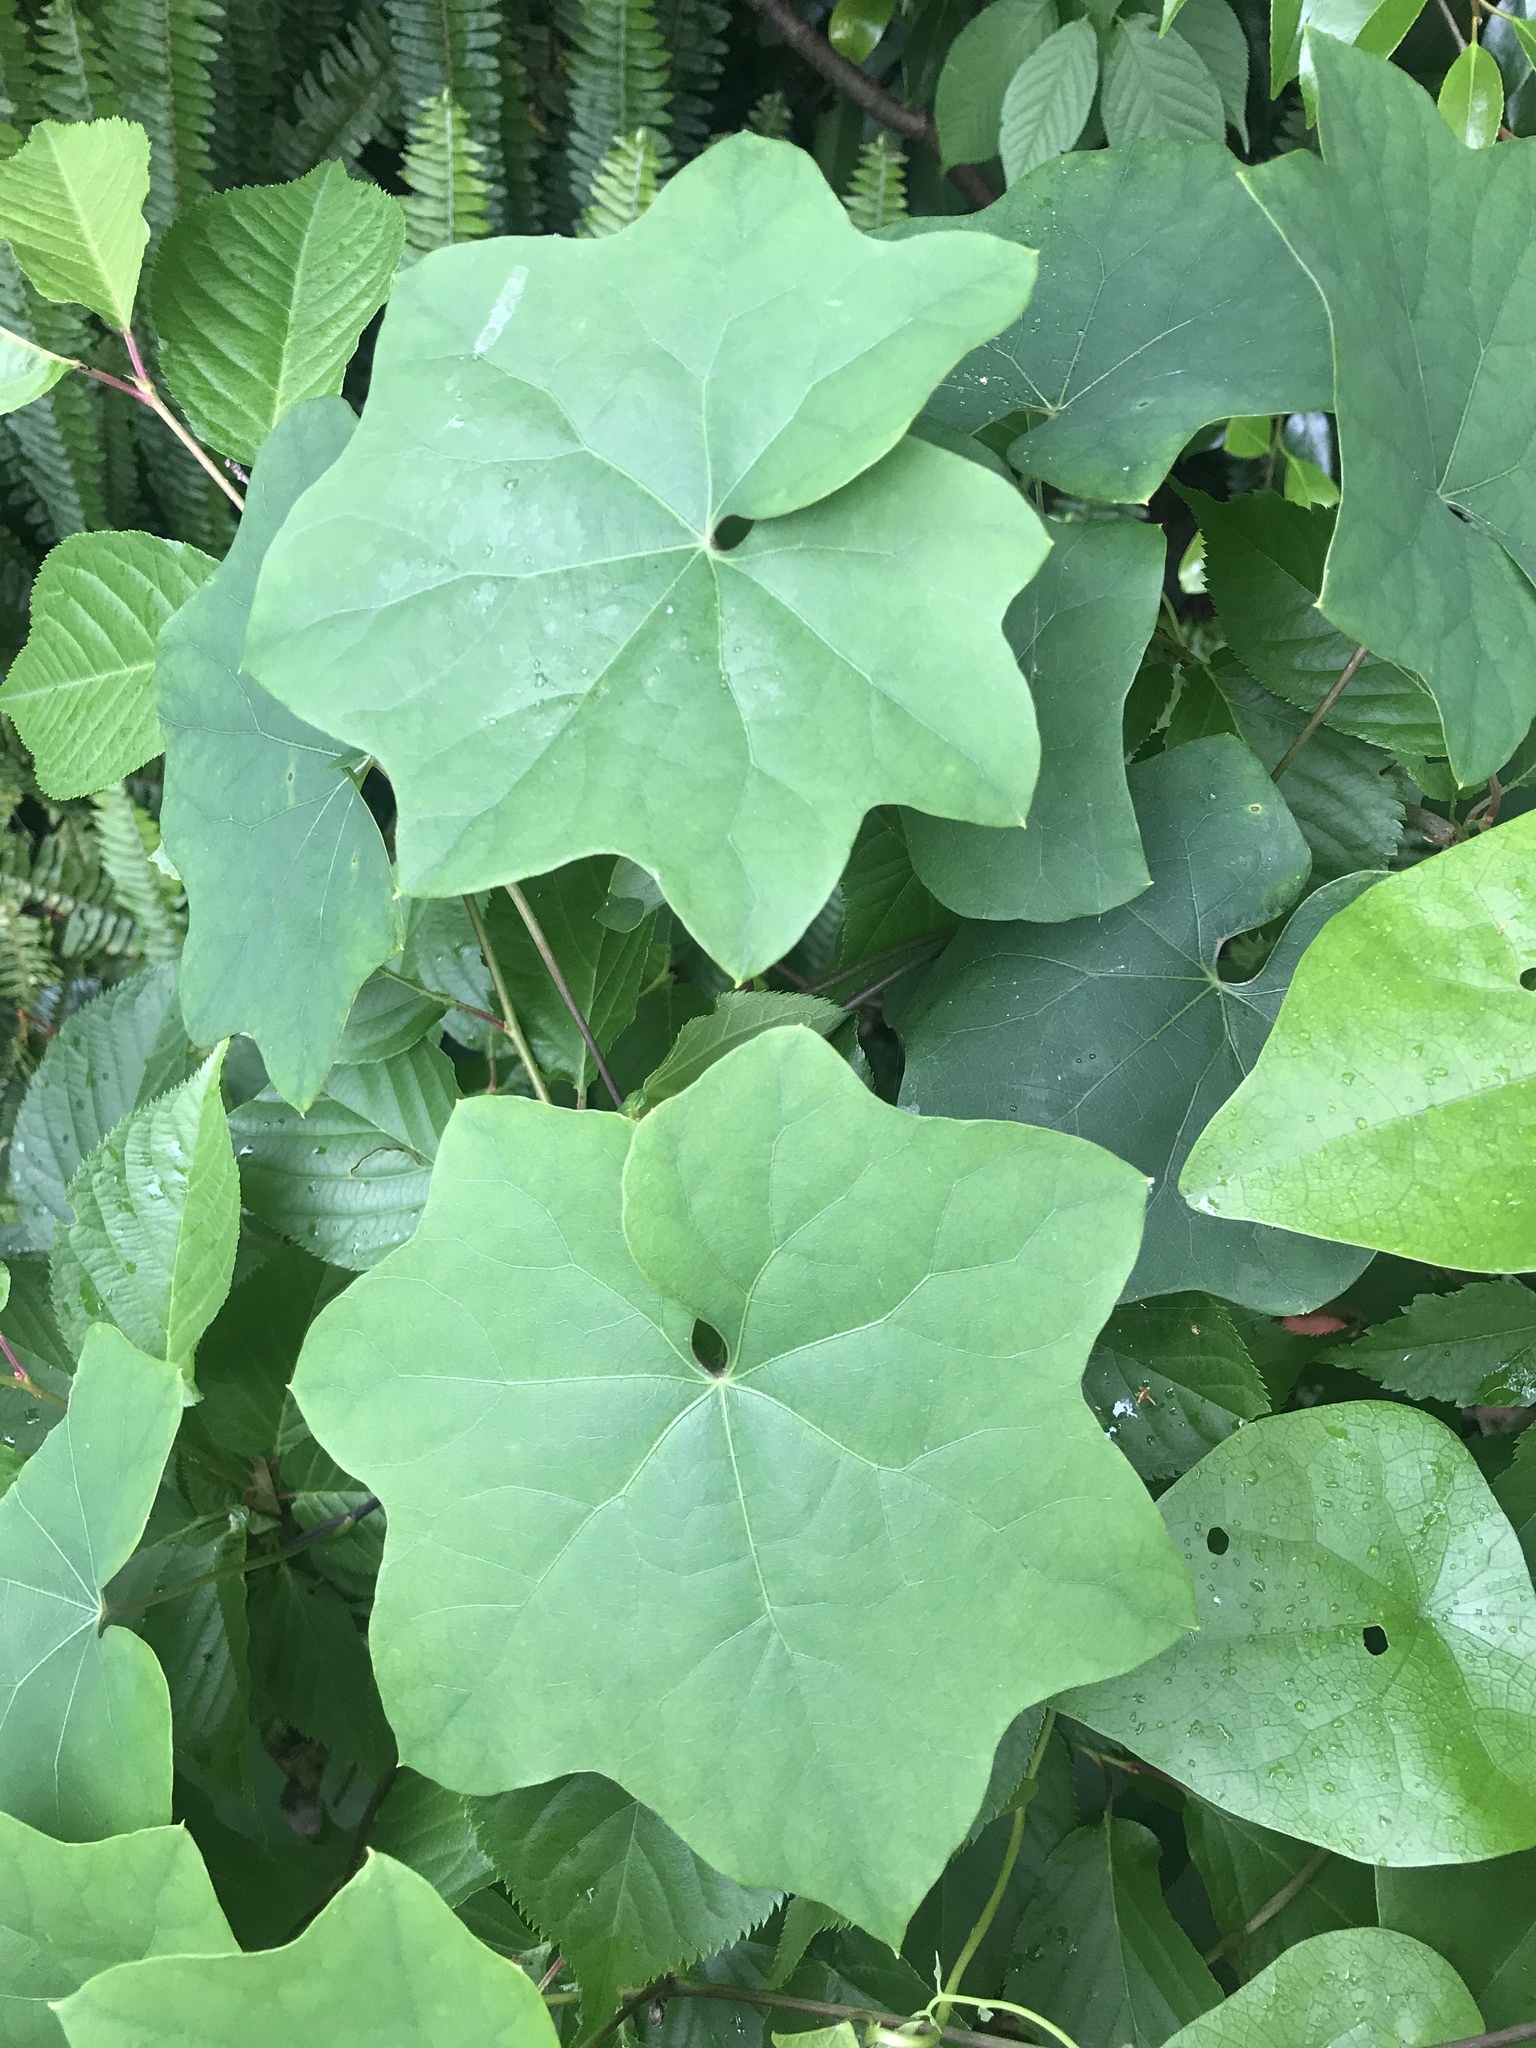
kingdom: Plantae
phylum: Tracheophyta
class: Magnoliopsida
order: Ranunculales
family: Menispermaceae
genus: Sinomenium
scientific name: Sinomenium acutum
